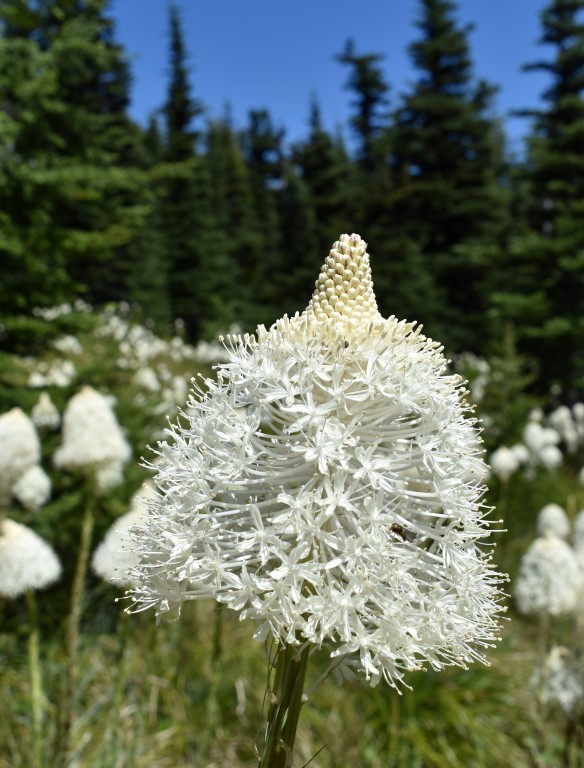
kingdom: Plantae
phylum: Tracheophyta
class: Liliopsida
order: Liliales
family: Melanthiaceae
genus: Xerophyllum
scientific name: Xerophyllum tenax
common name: Bear-grass
